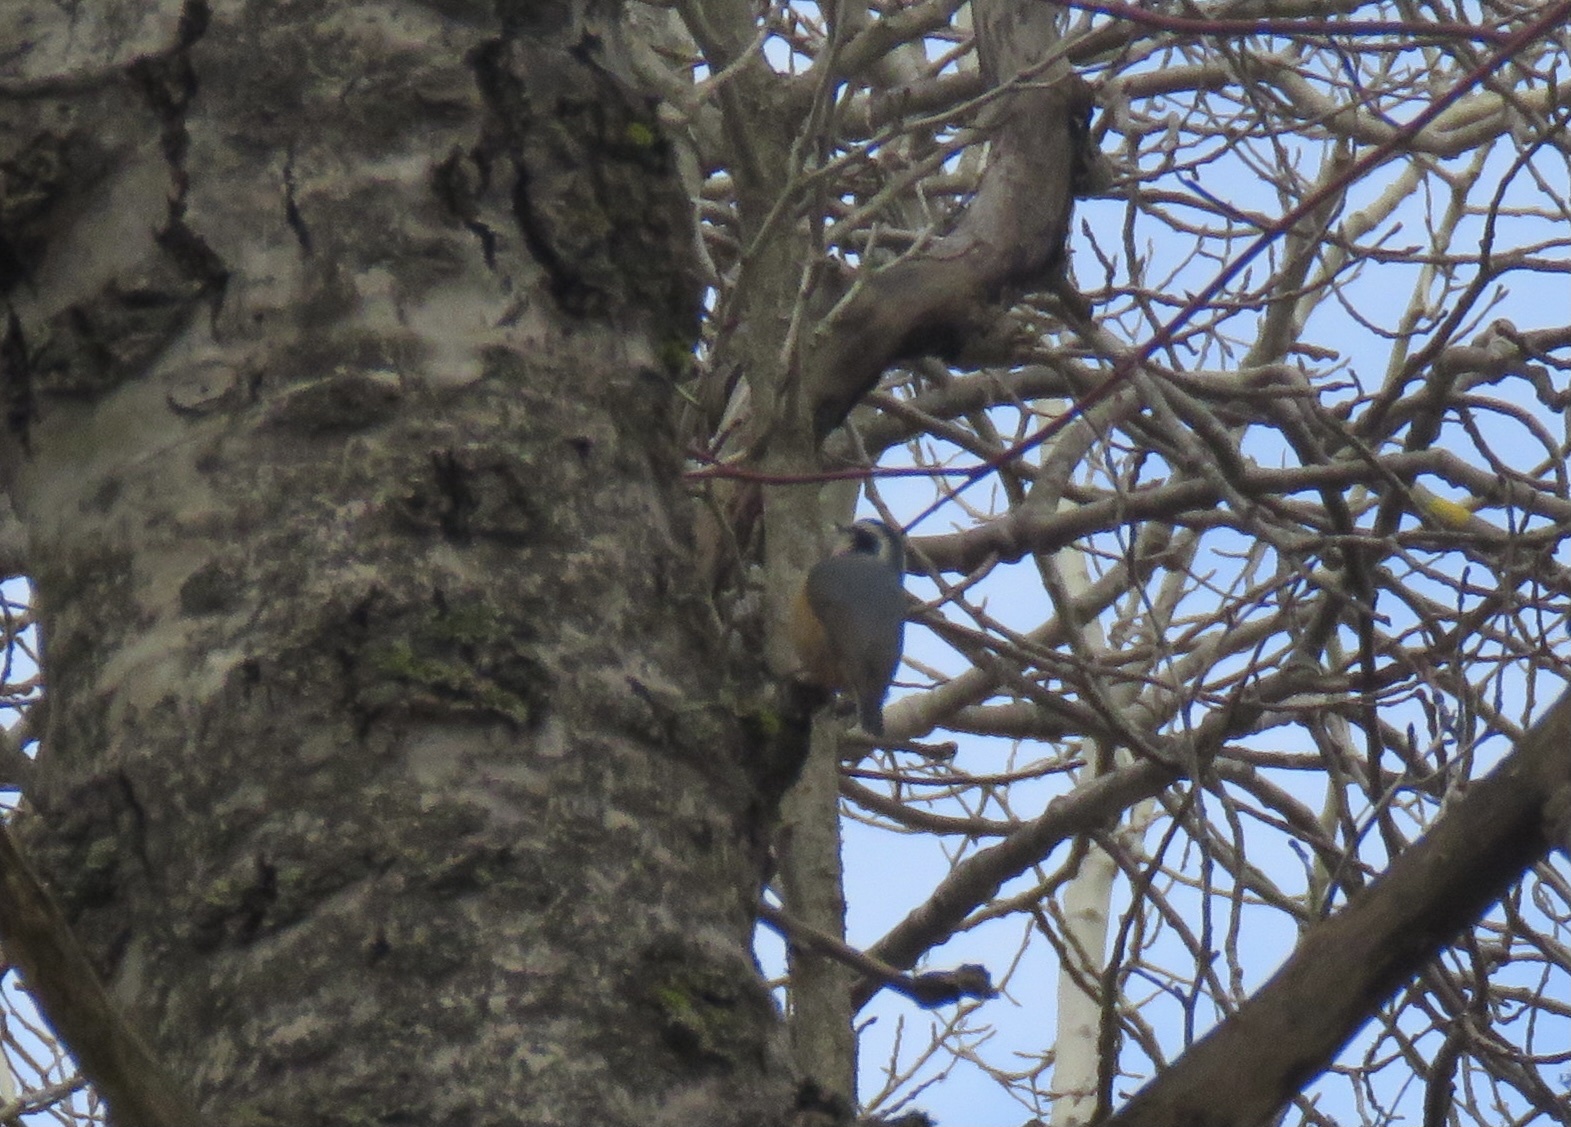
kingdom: Animalia
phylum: Chordata
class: Aves
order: Passeriformes
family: Sittidae
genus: Sitta
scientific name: Sitta canadensis
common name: Red-breasted nuthatch
